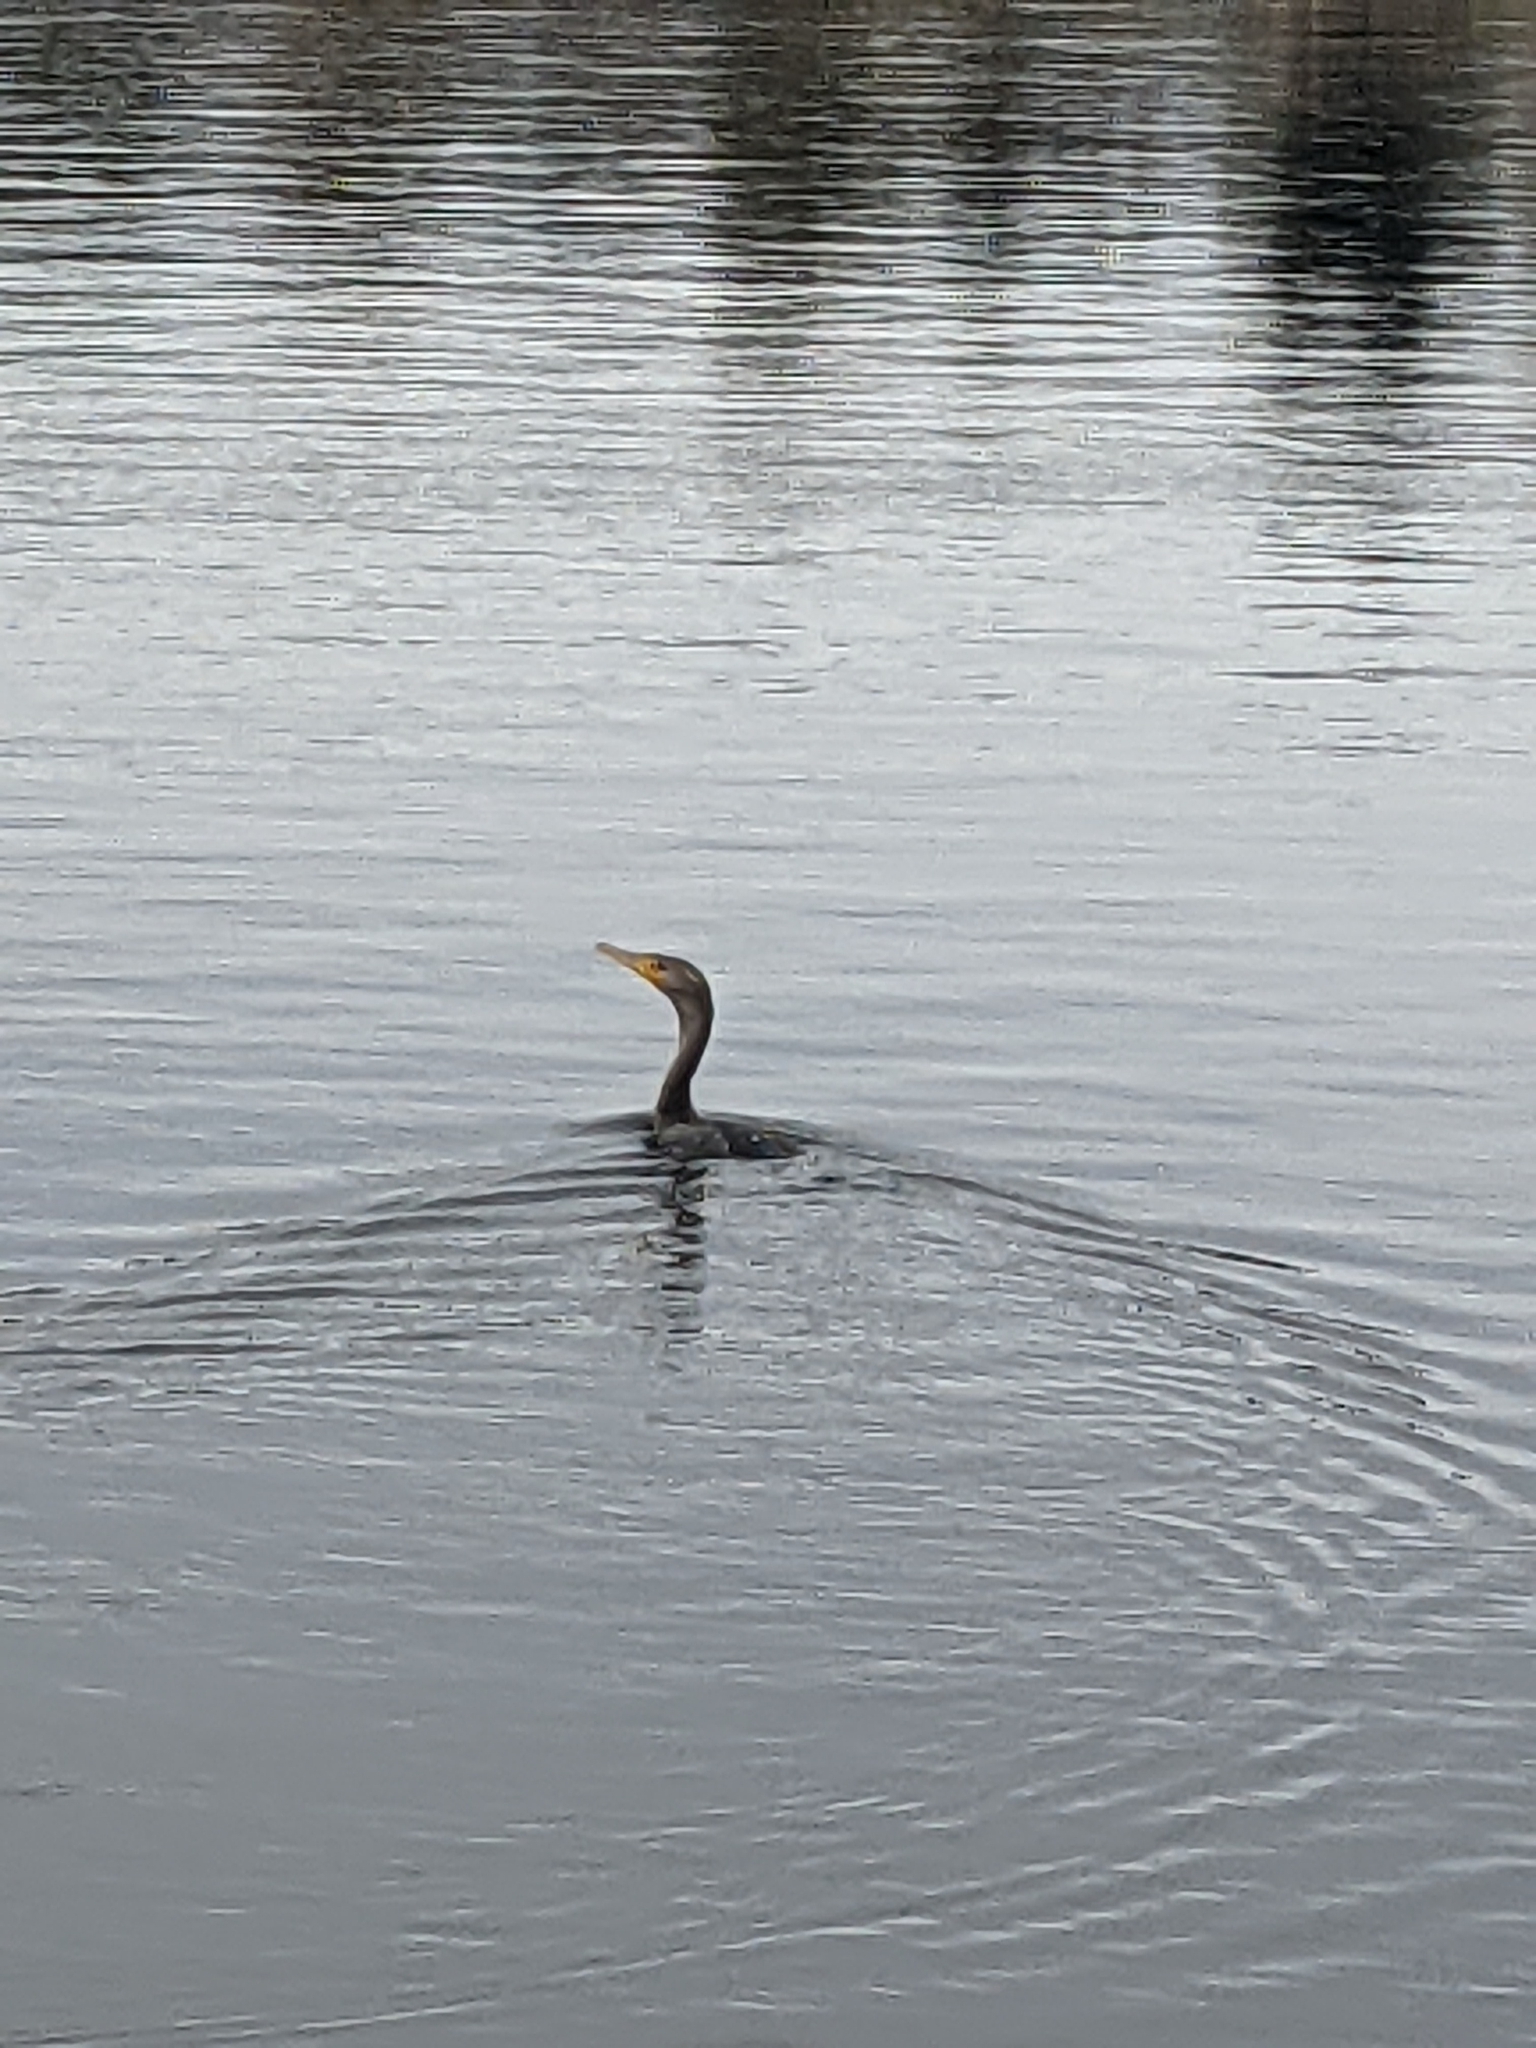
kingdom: Animalia
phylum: Chordata
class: Aves
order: Suliformes
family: Phalacrocoracidae
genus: Phalacrocorax
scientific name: Phalacrocorax auritus
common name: Double-crested cormorant
